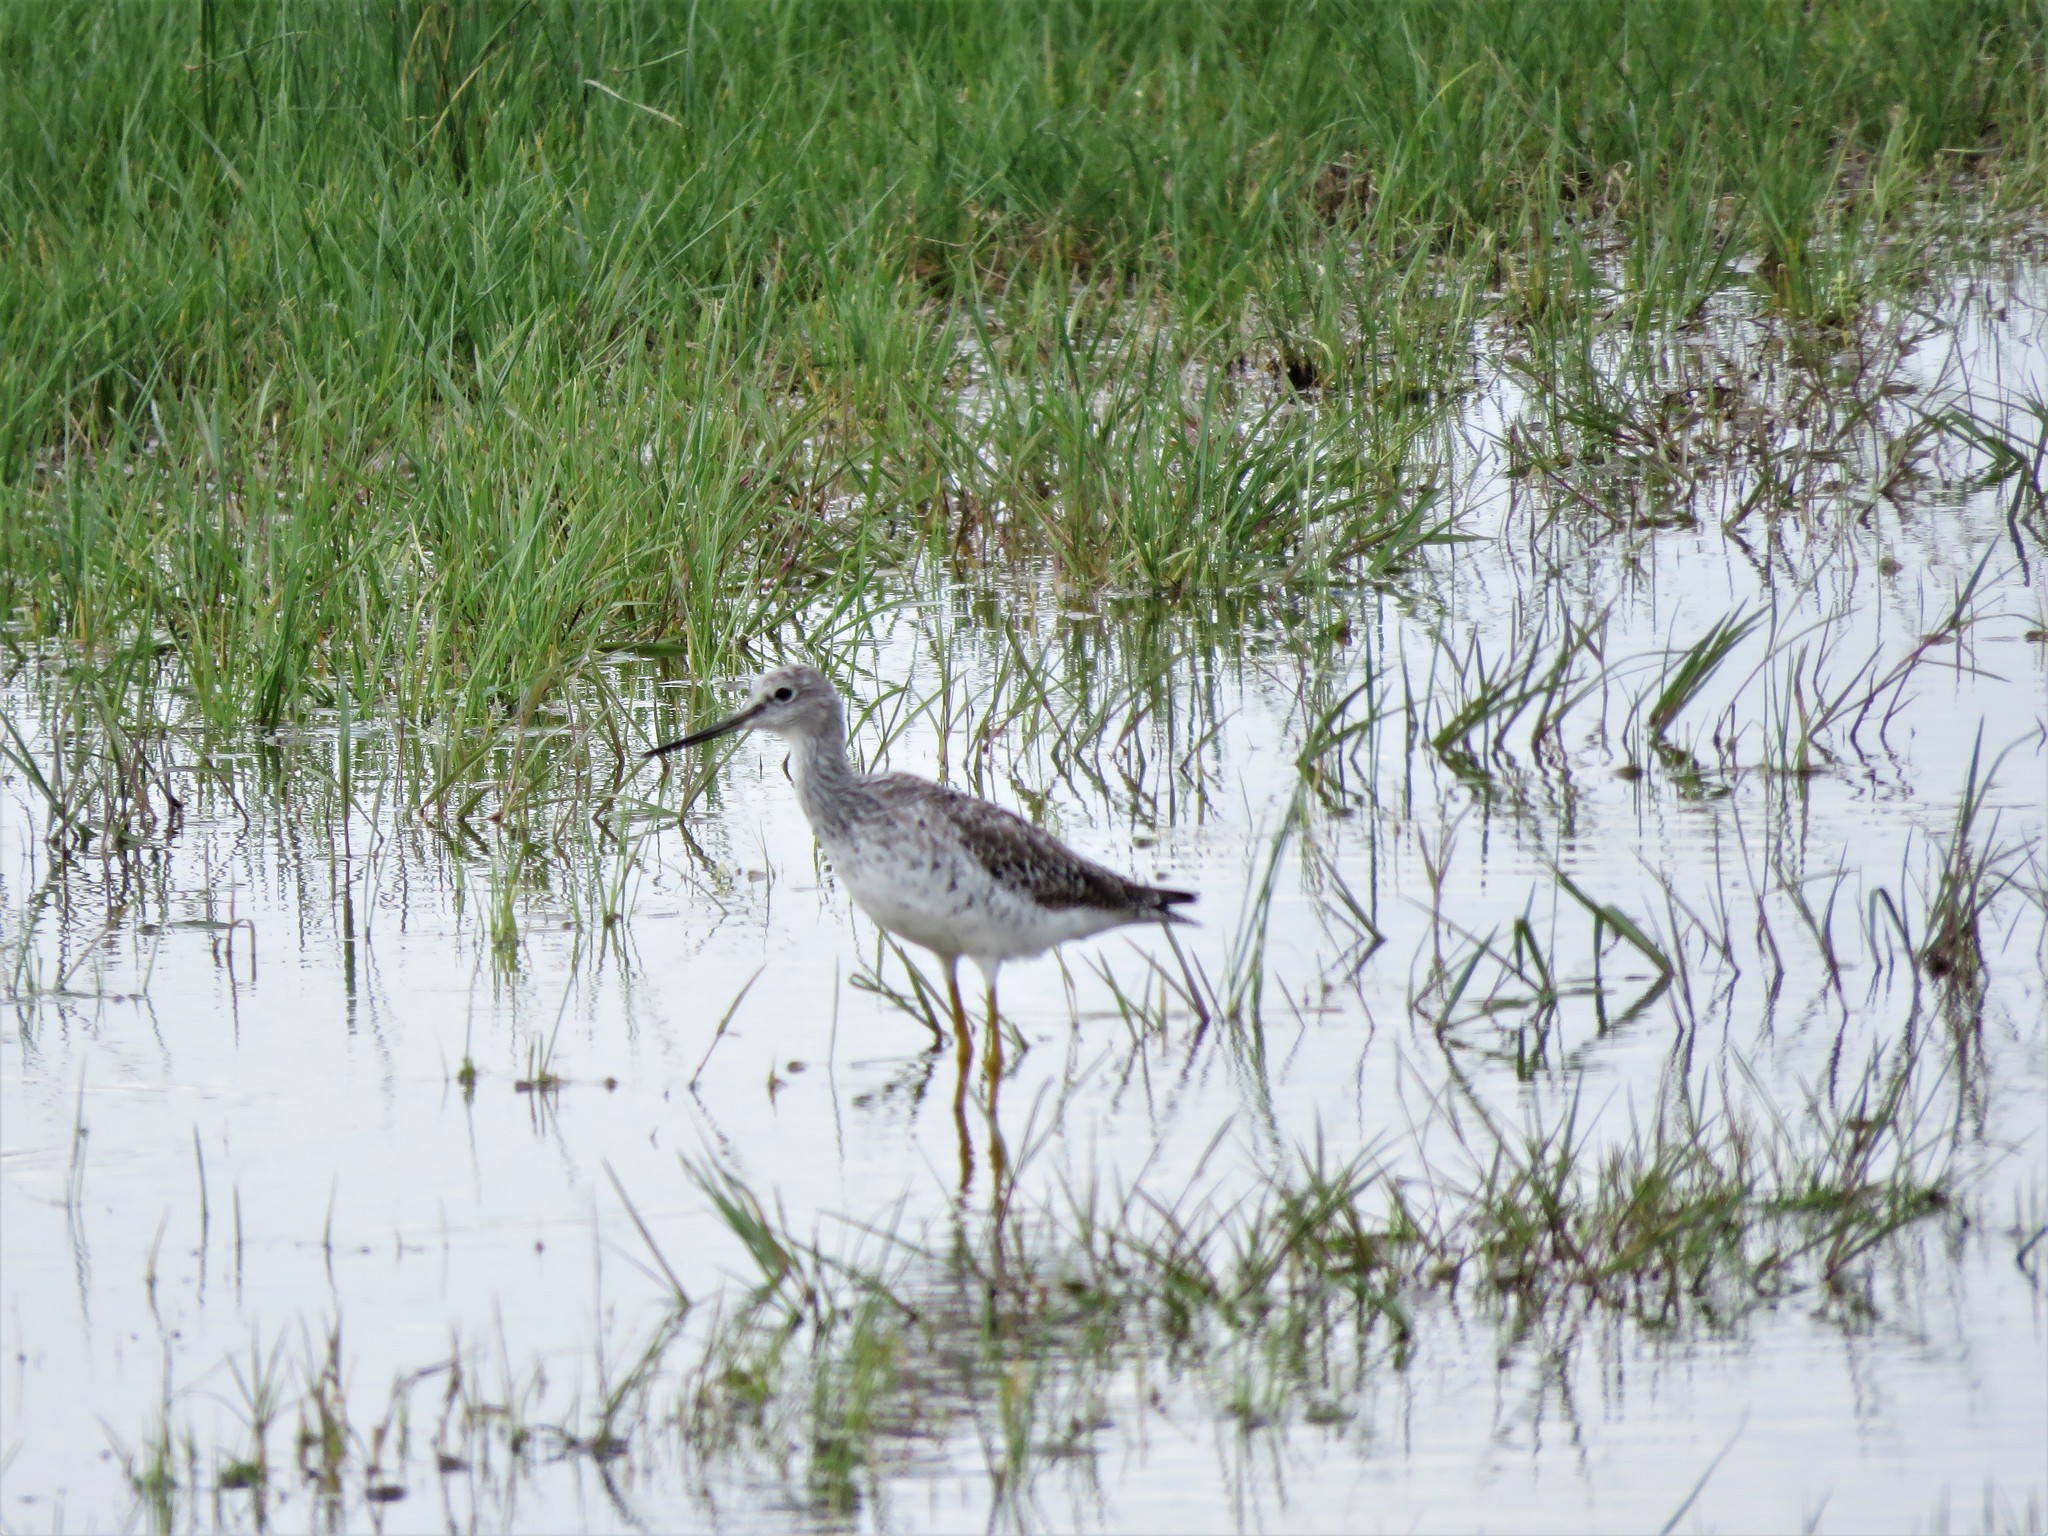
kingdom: Animalia
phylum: Chordata
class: Aves
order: Charadriiformes
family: Scolopacidae
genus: Tringa
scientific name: Tringa melanoleuca
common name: Greater yellowlegs
